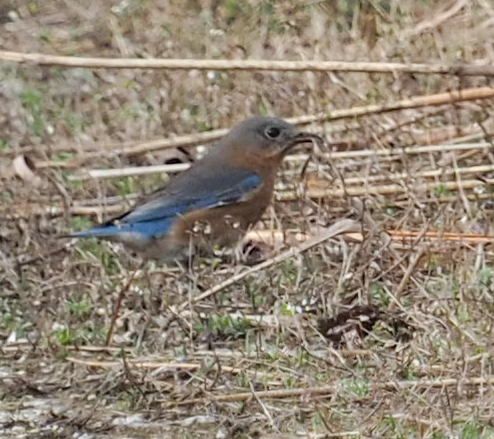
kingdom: Animalia
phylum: Chordata
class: Aves
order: Passeriformes
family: Turdidae
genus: Sialia
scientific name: Sialia sialis
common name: Eastern bluebird
